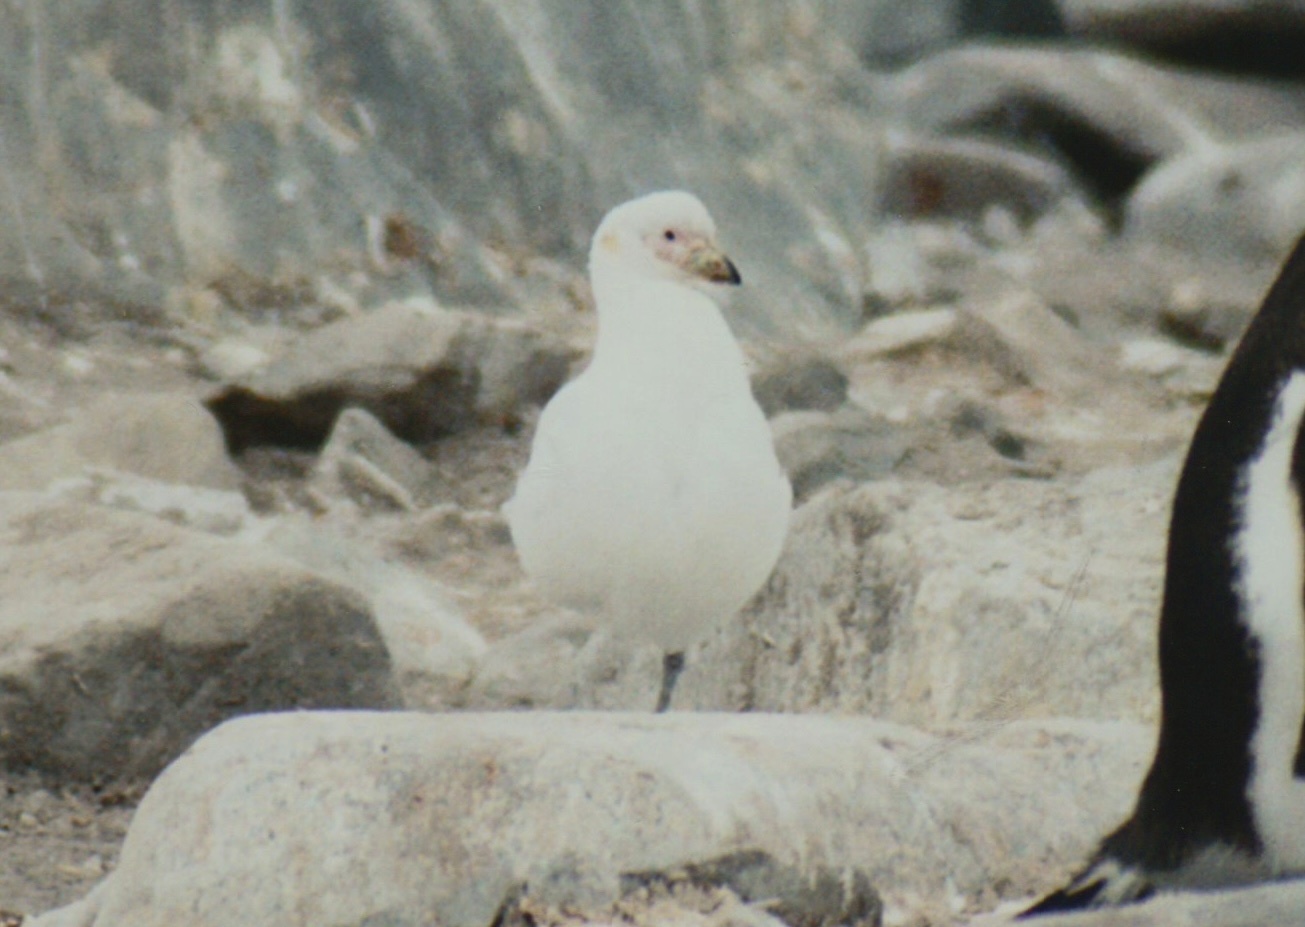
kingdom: Animalia
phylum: Chordata
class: Aves
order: Charadriiformes
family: Chionidae
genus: Chionis
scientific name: Chionis albus
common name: Snowy sheathbill
